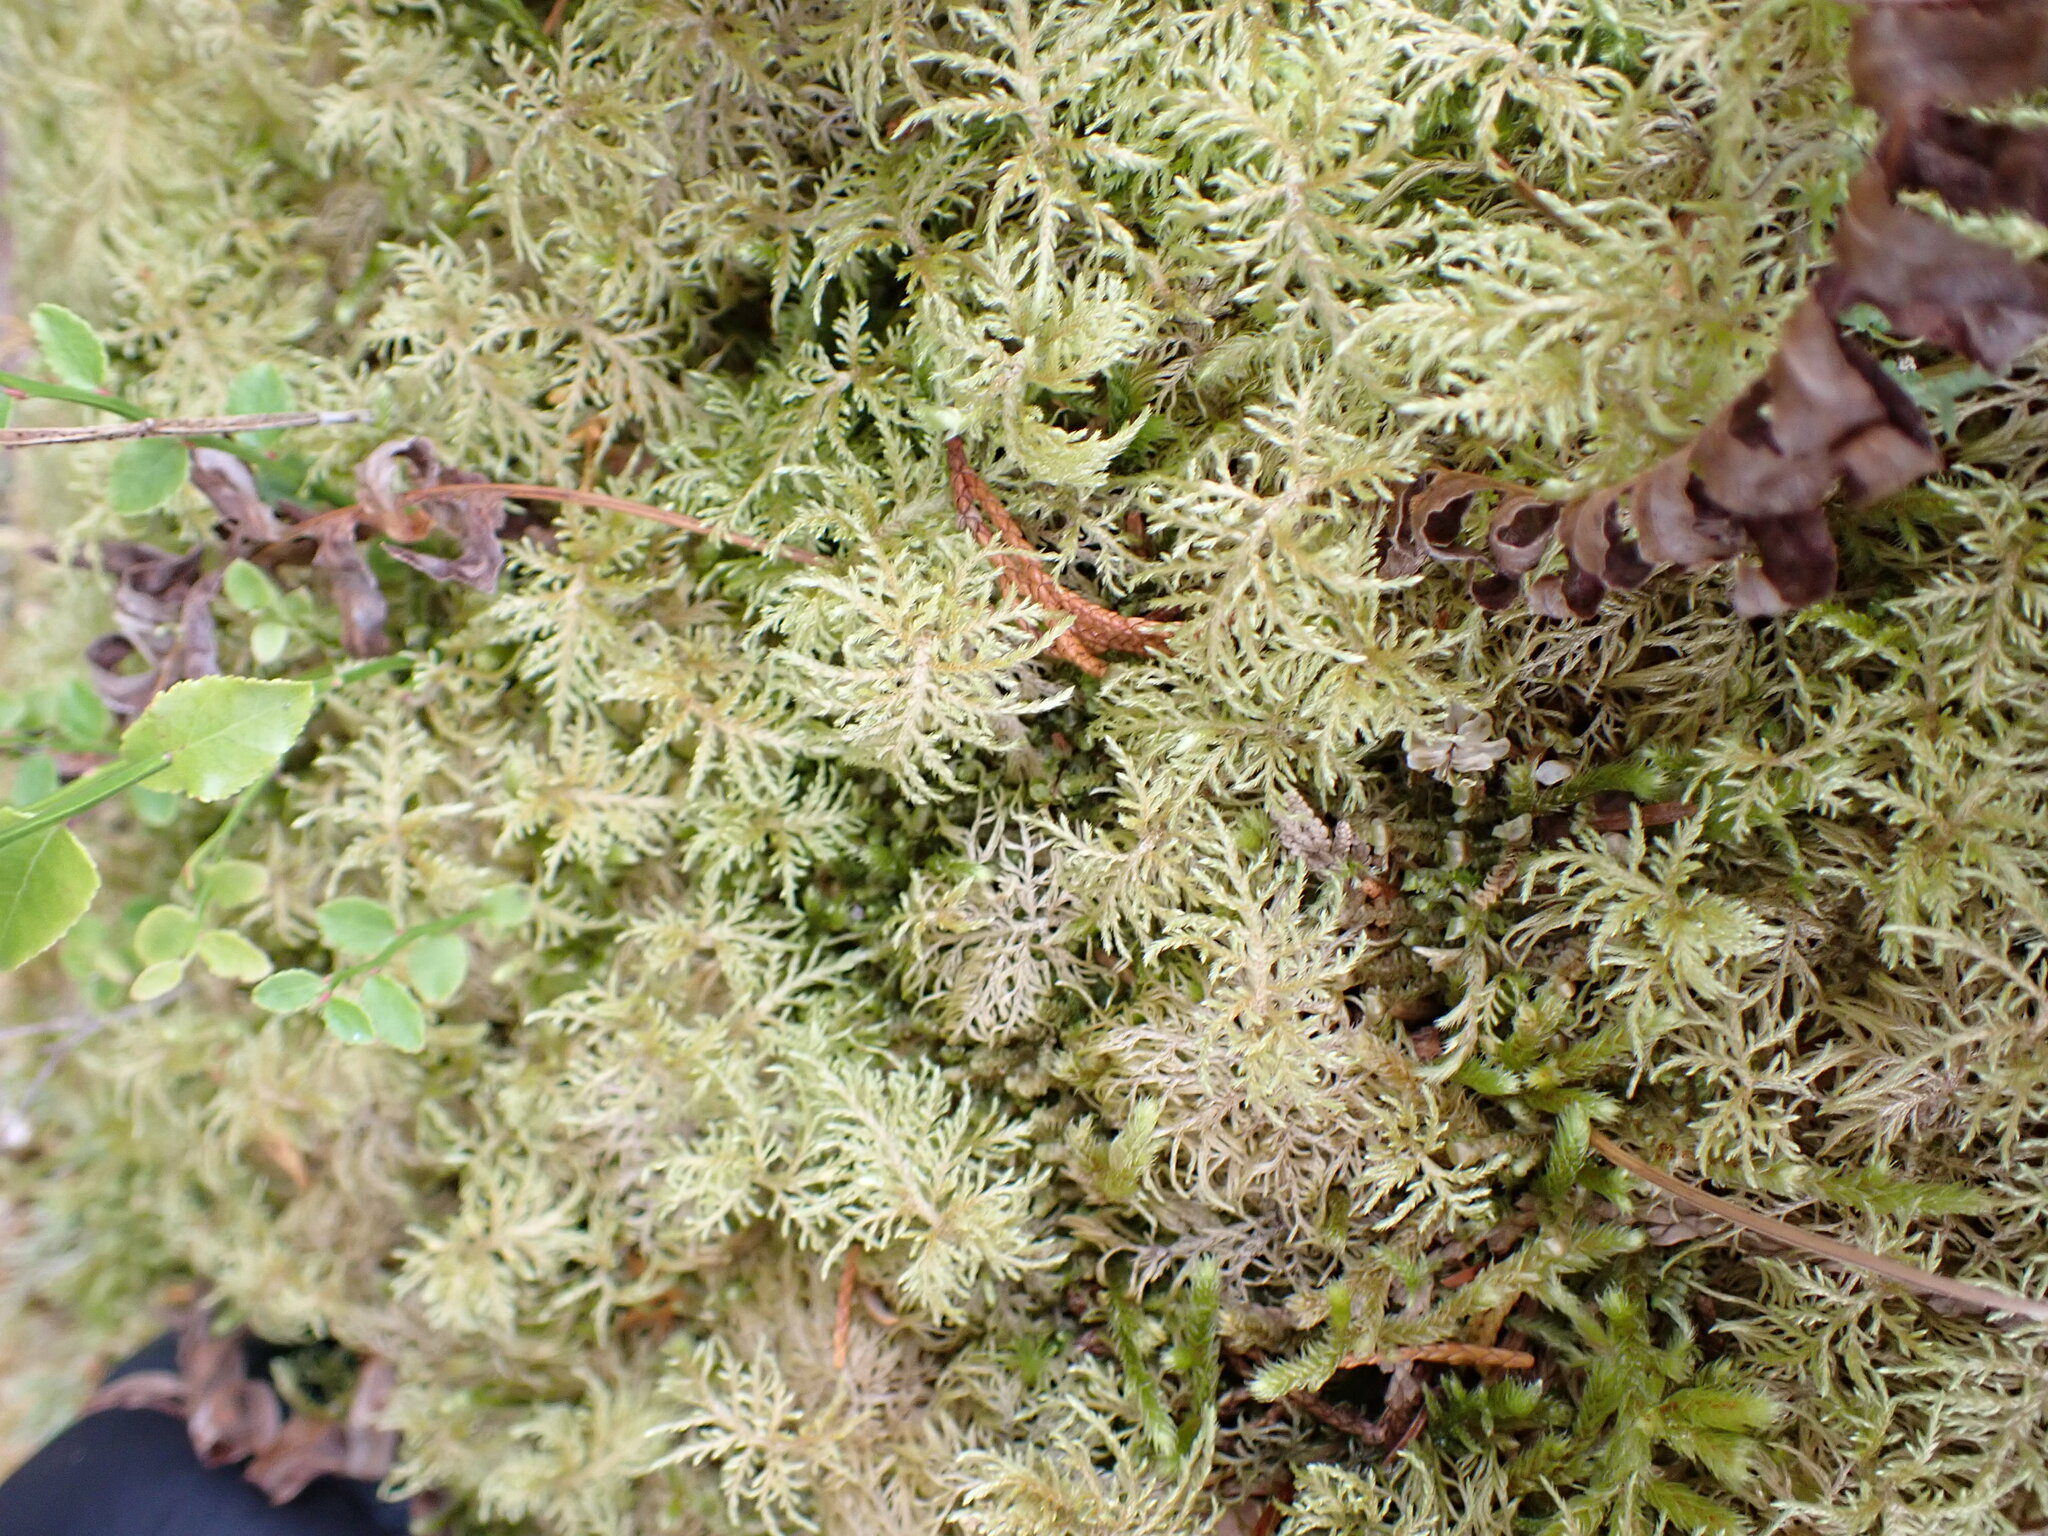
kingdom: Plantae
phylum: Bryophyta
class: Bryopsida
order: Hypnales
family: Hylocomiaceae
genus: Hylocomium
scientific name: Hylocomium splendens
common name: Stairstep moss
